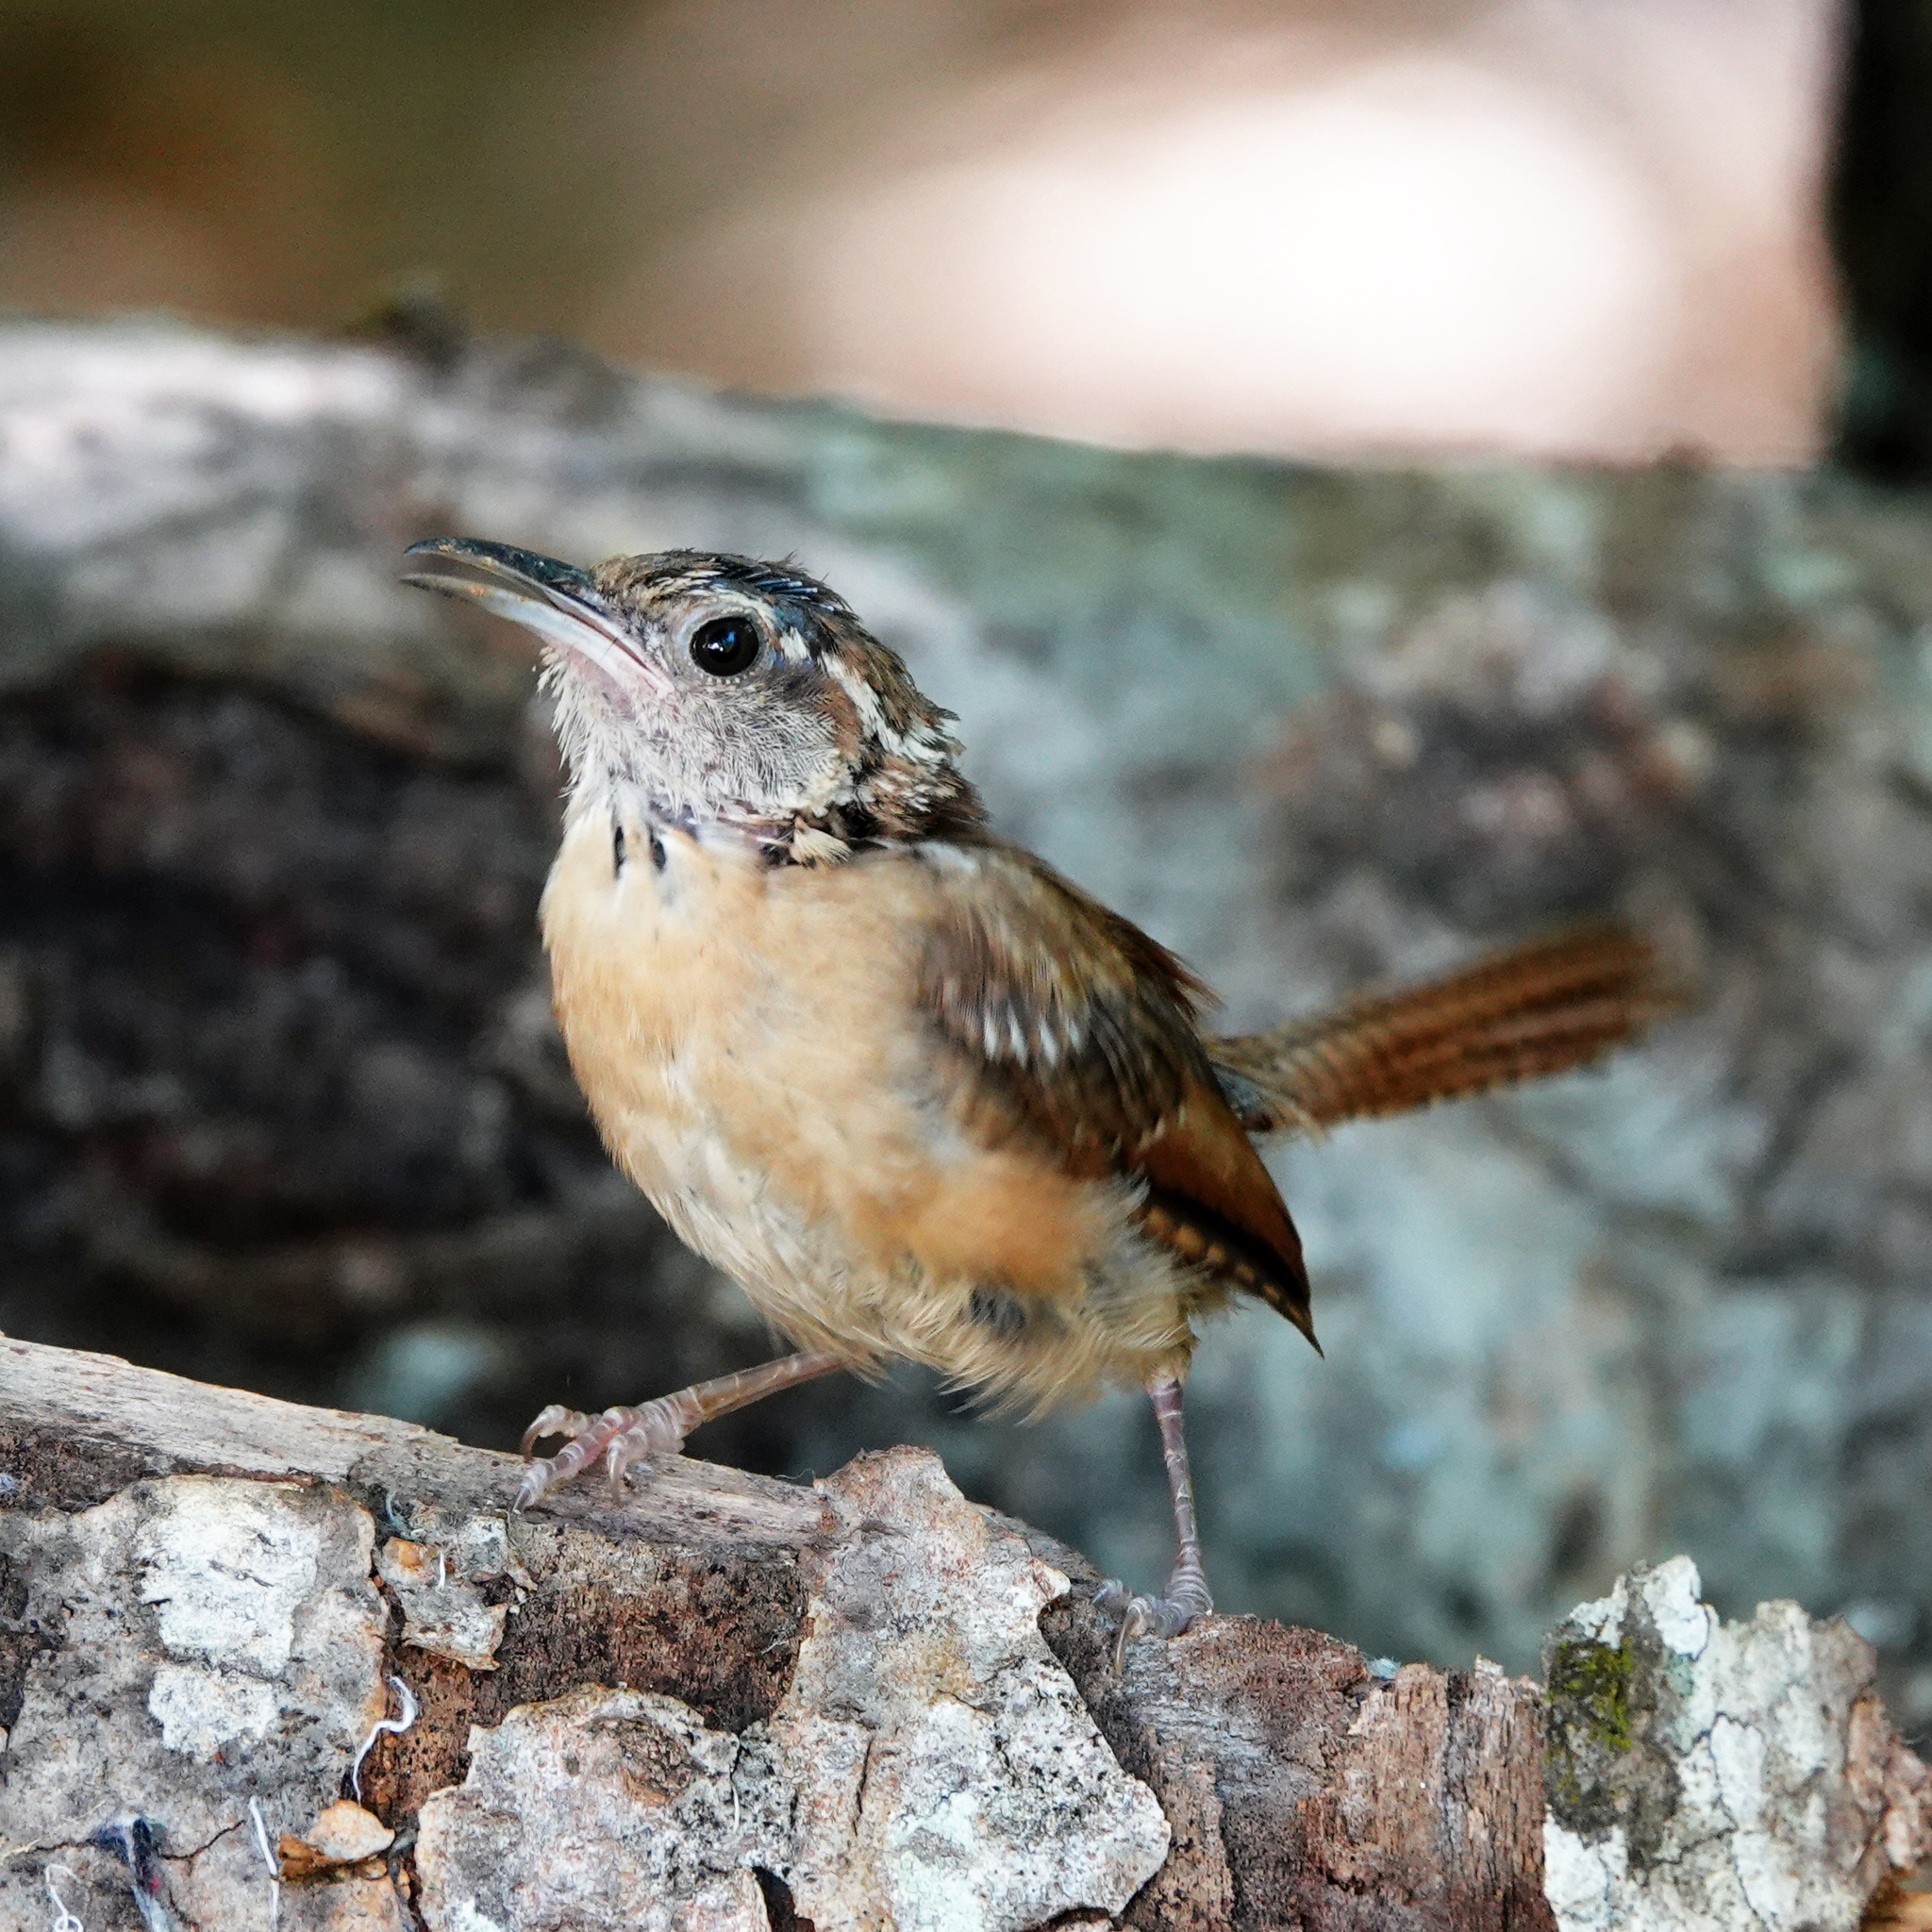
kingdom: Animalia
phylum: Chordata
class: Aves
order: Passeriformes
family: Troglodytidae
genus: Thryothorus
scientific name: Thryothorus ludovicianus
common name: Carolina wren
